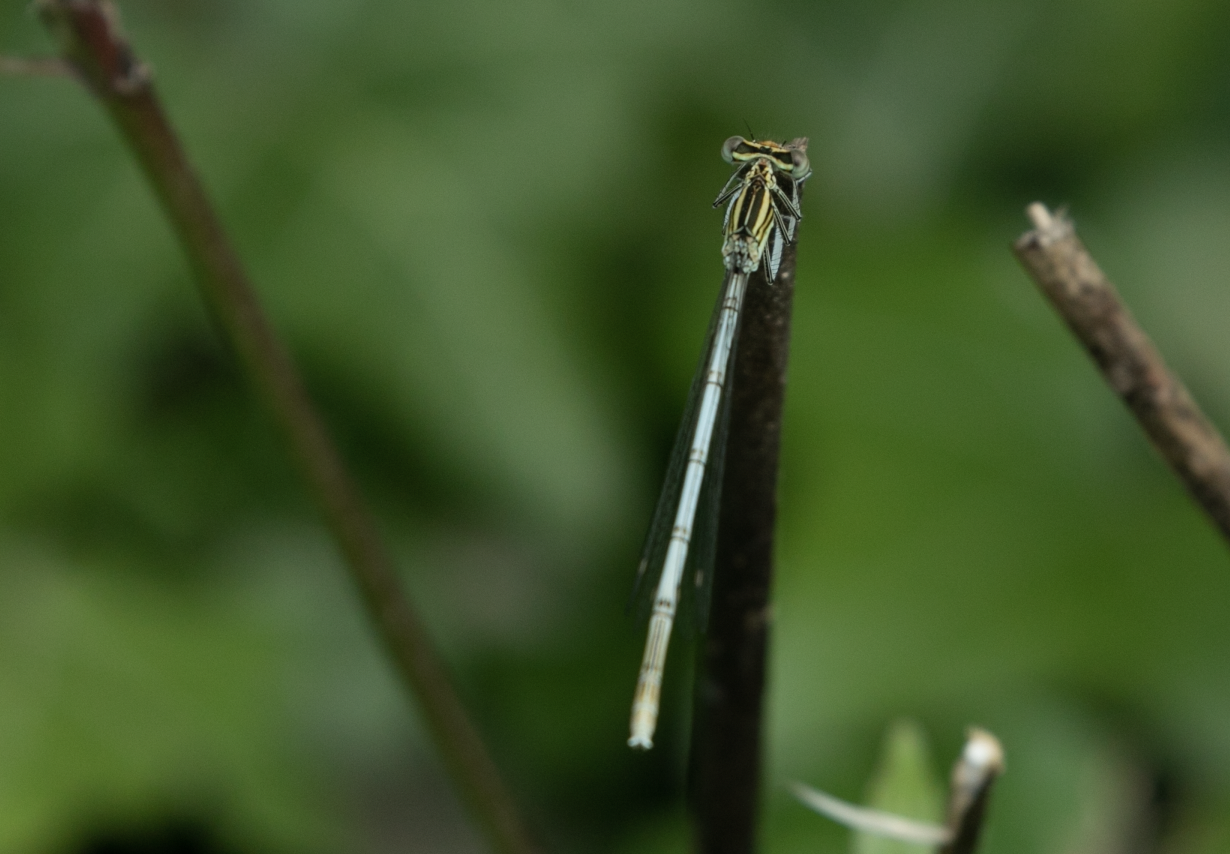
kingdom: Animalia
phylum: Arthropoda
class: Insecta
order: Odonata
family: Platycnemididae
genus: Platycnemis
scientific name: Platycnemis pennipes
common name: White-legged damselfly
